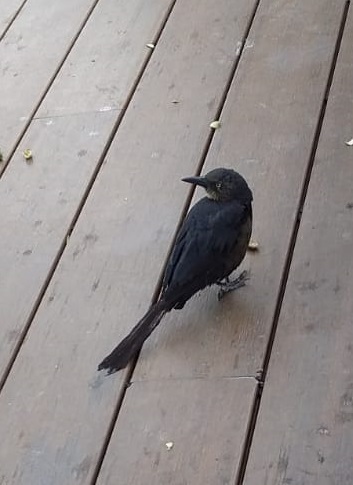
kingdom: Animalia
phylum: Chordata
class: Aves
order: Passeriformes
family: Icteridae
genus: Quiscalus
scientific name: Quiscalus mexicanus
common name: Great-tailed grackle
